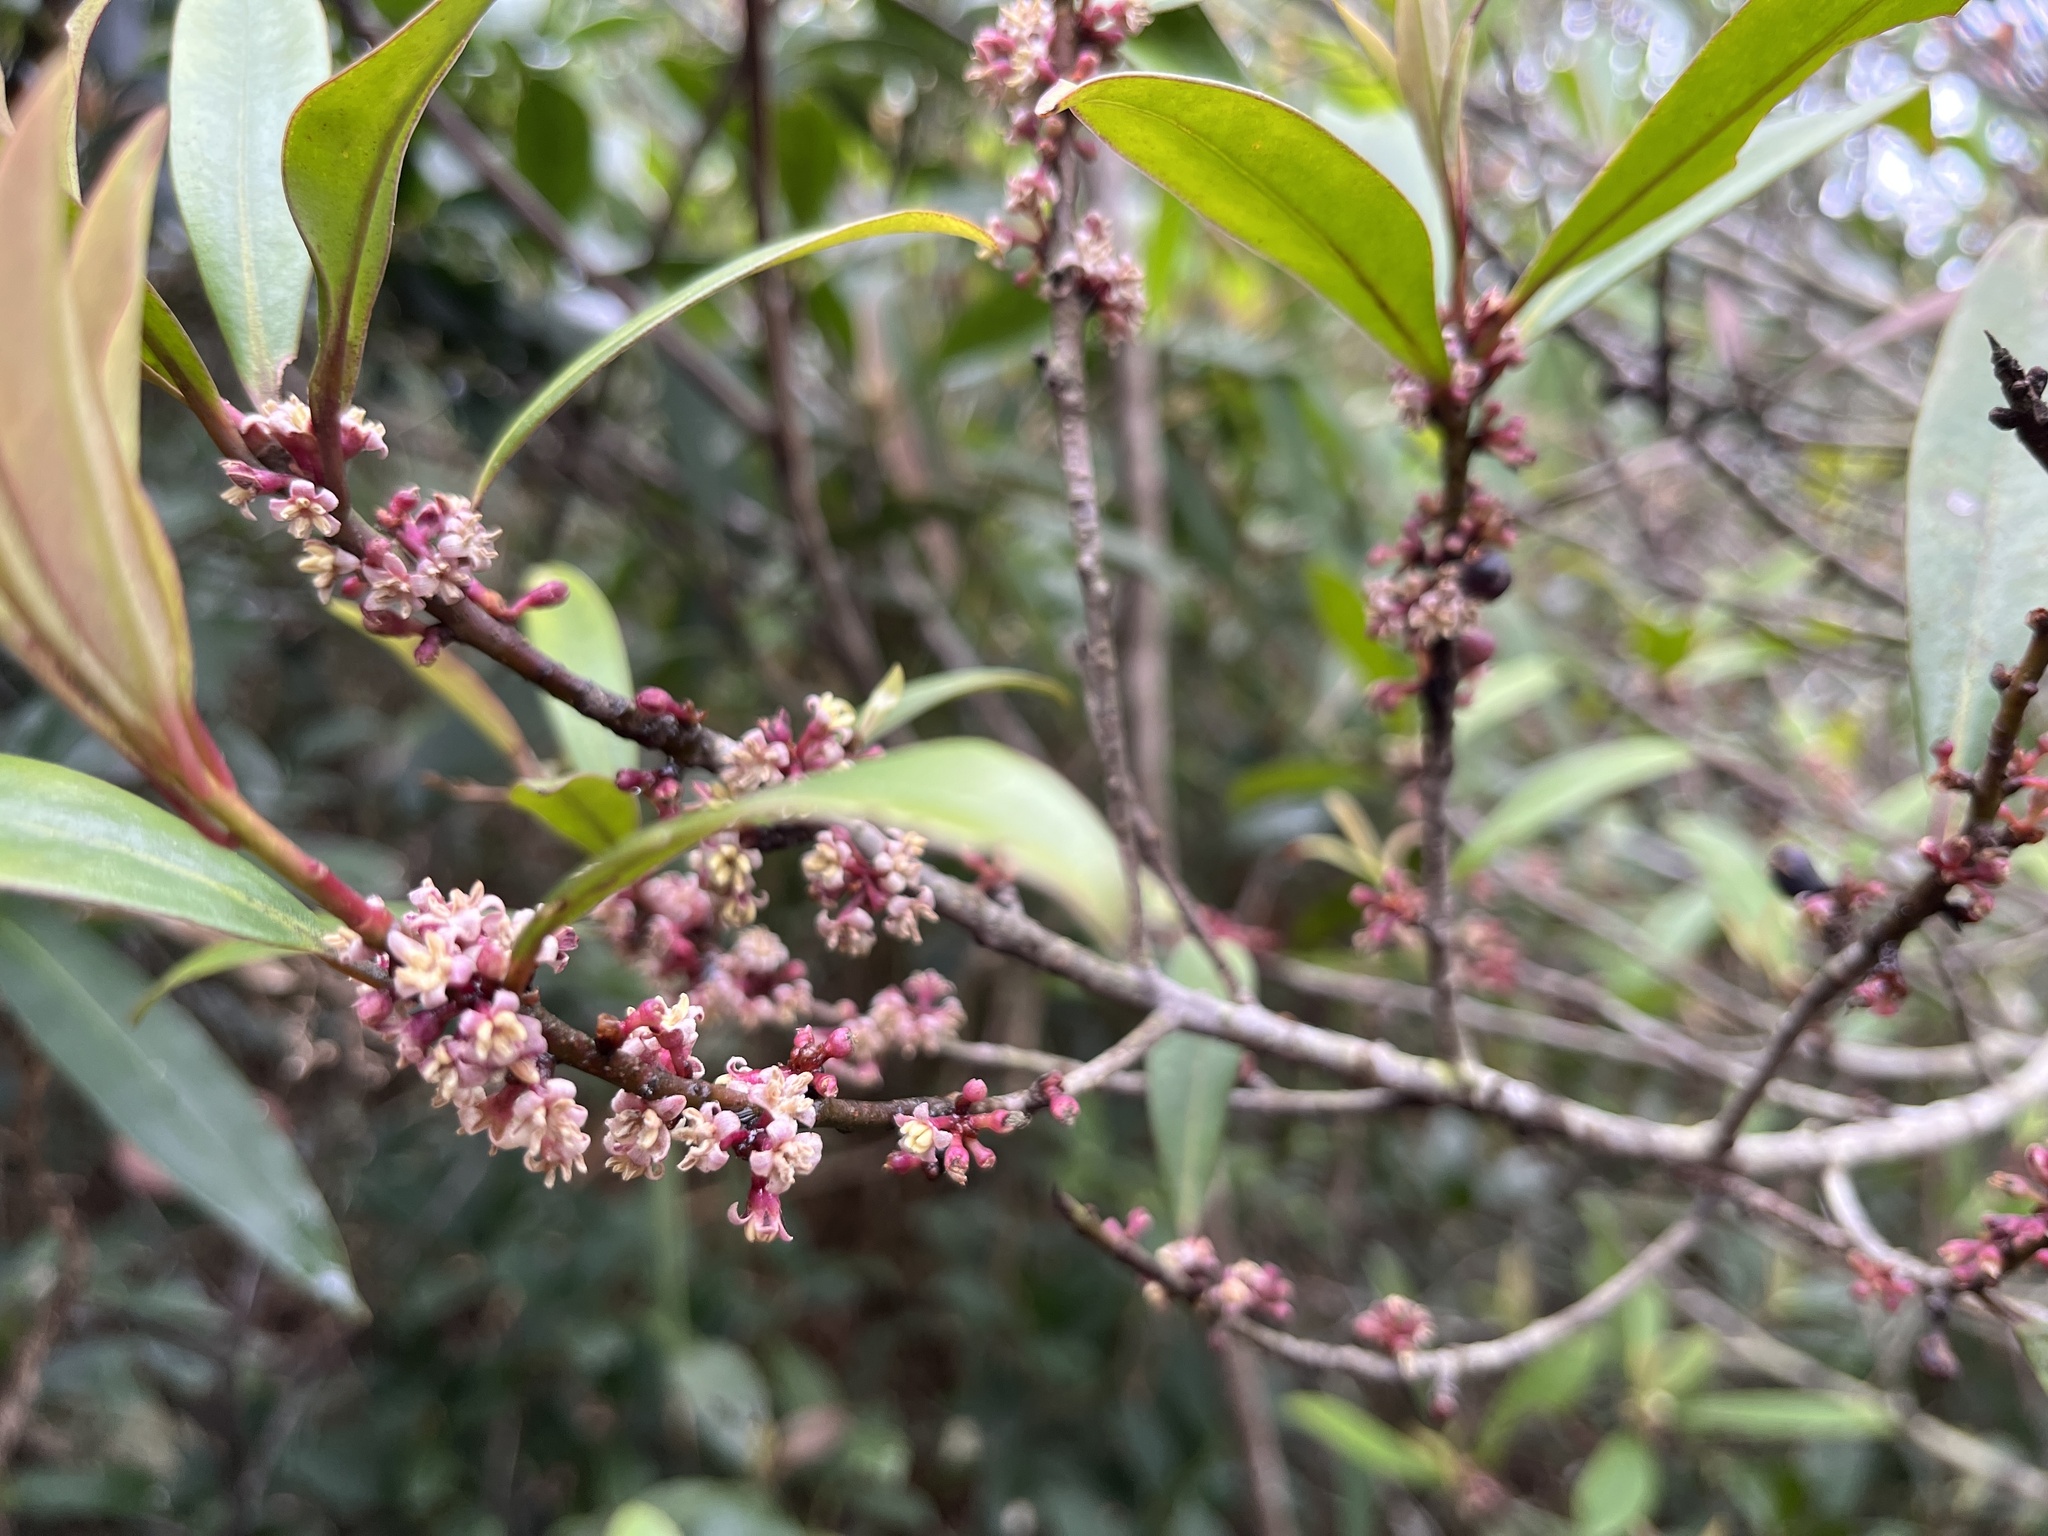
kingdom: Plantae
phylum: Tracheophyta
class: Magnoliopsida
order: Ericales
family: Primulaceae
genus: Myrsine
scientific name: Myrsine seguinii
